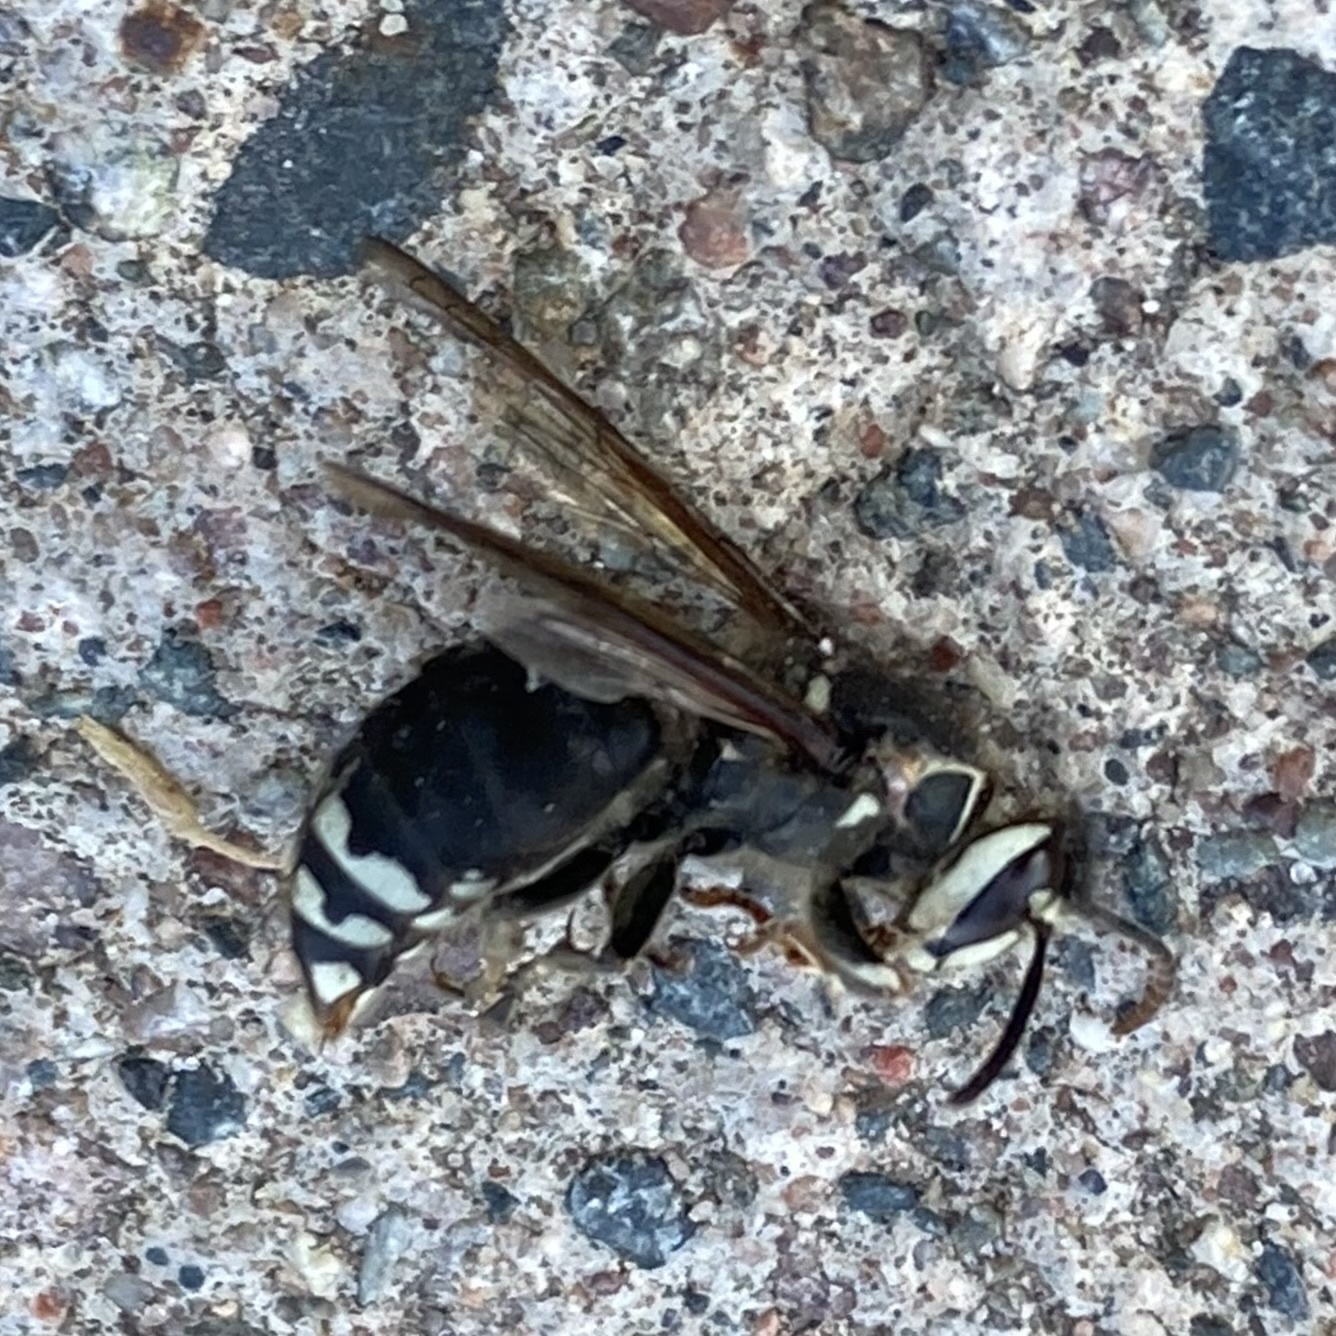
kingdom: Animalia
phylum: Arthropoda
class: Insecta
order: Hymenoptera
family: Vespidae
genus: Dolichovespula
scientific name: Dolichovespula maculata
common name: Bald-faced hornet
